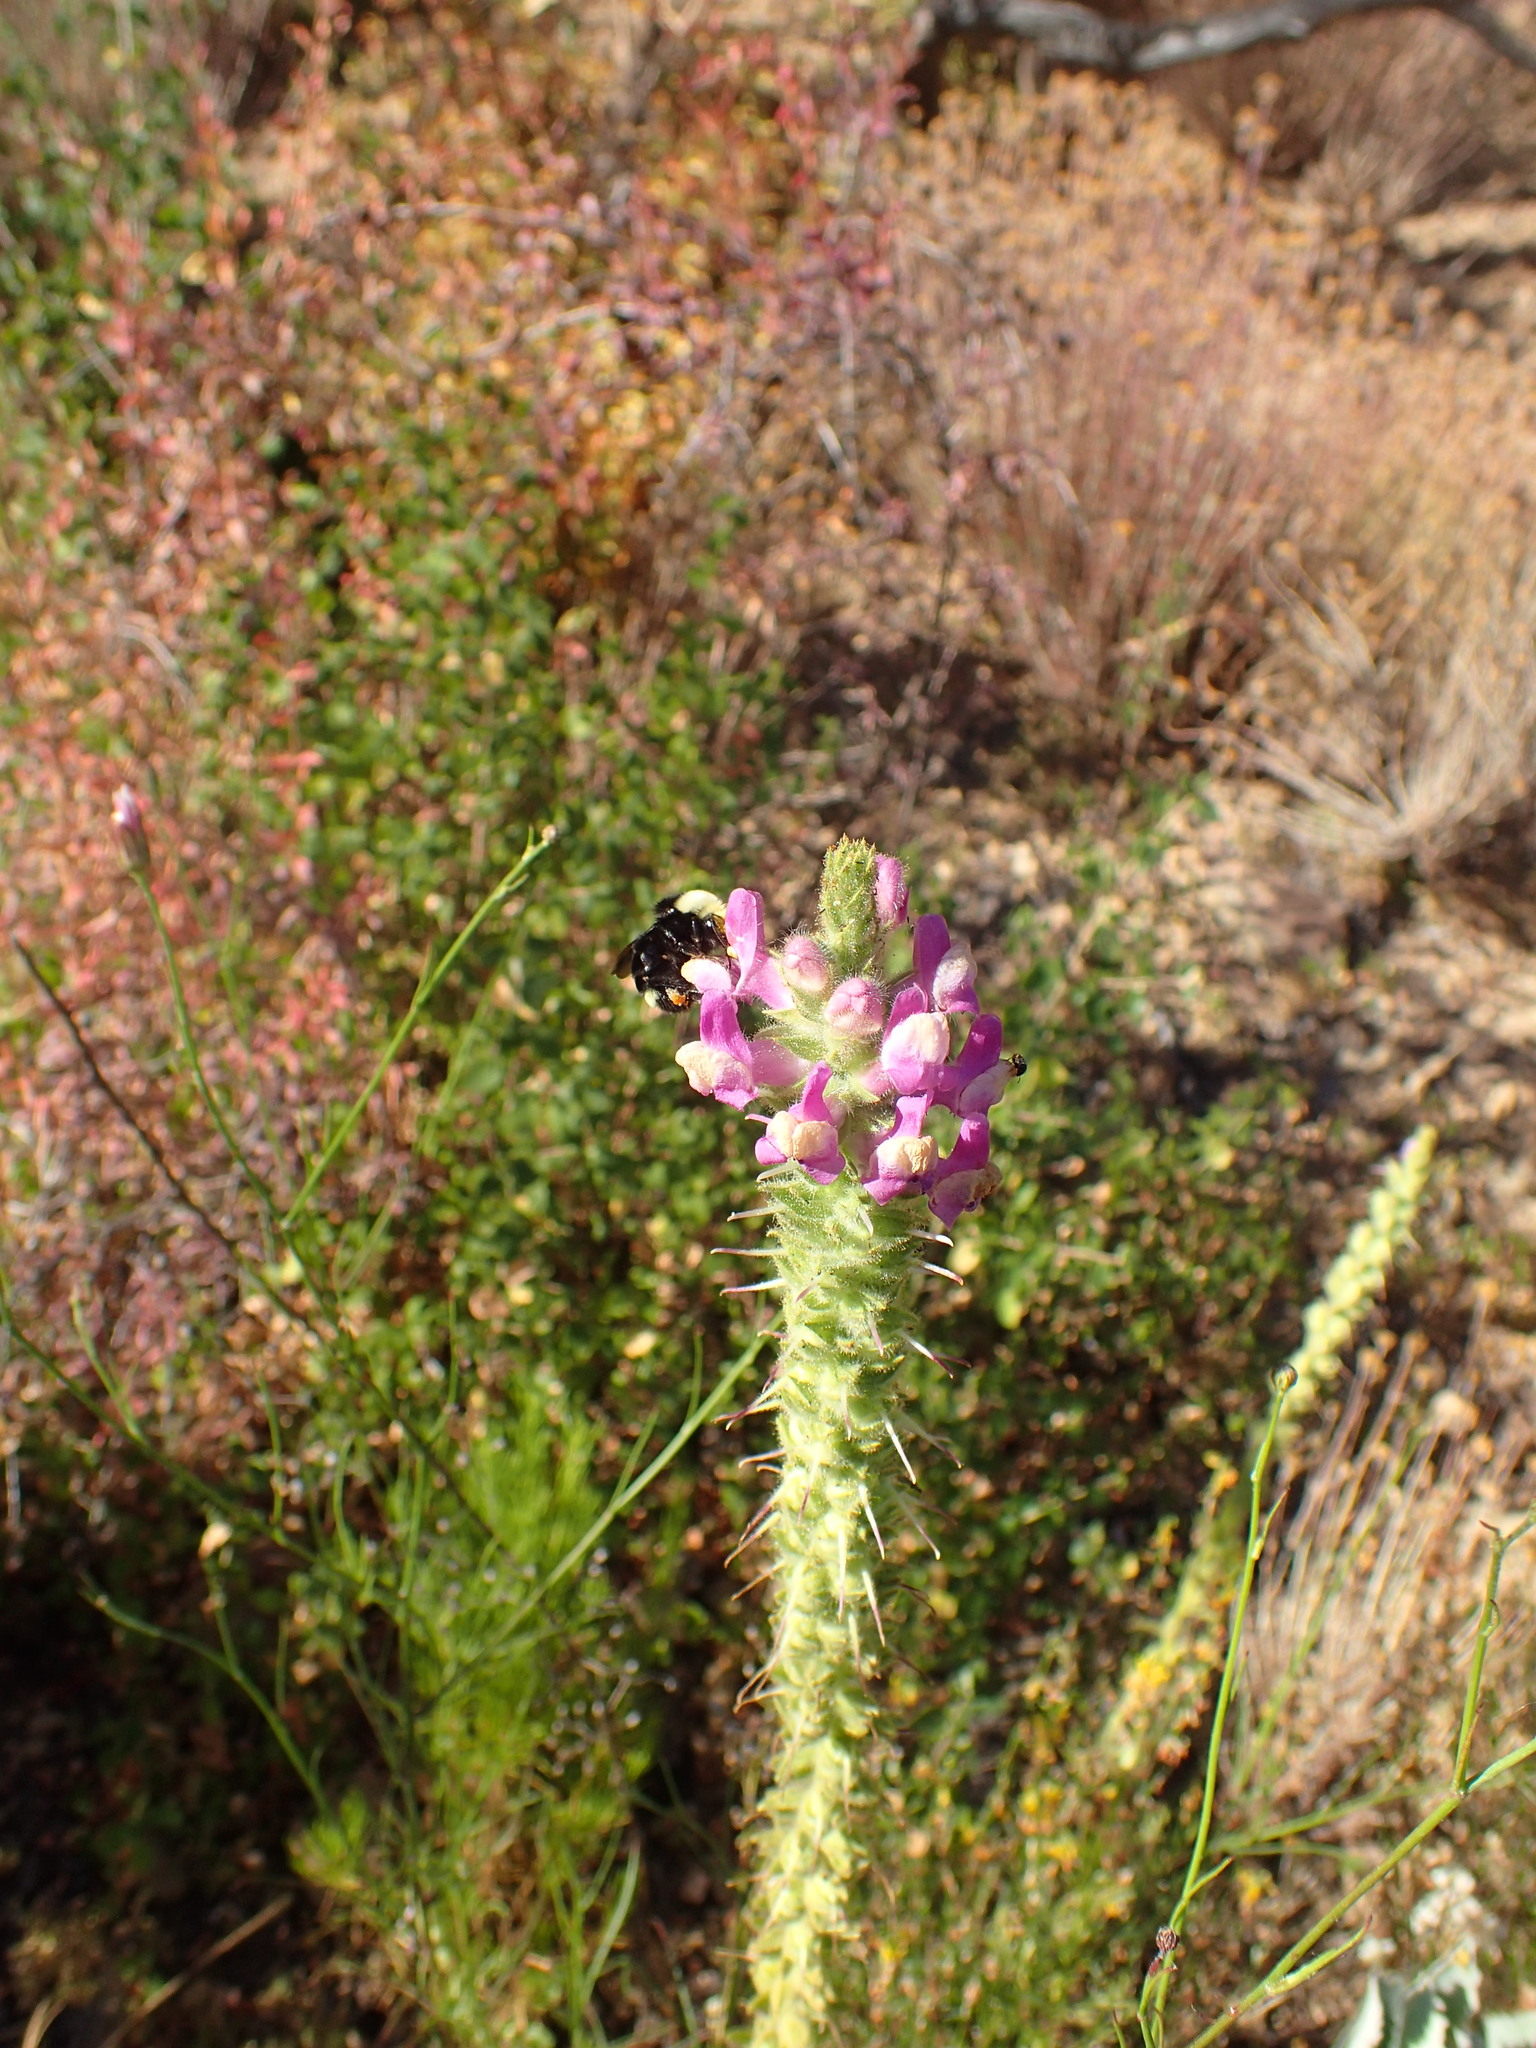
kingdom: Plantae
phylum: Tracheophyta
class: Magnoliopsida
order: Lamiales
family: Plantaginaceae
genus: Sairocarpus
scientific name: Sairocarpus multiflorus
